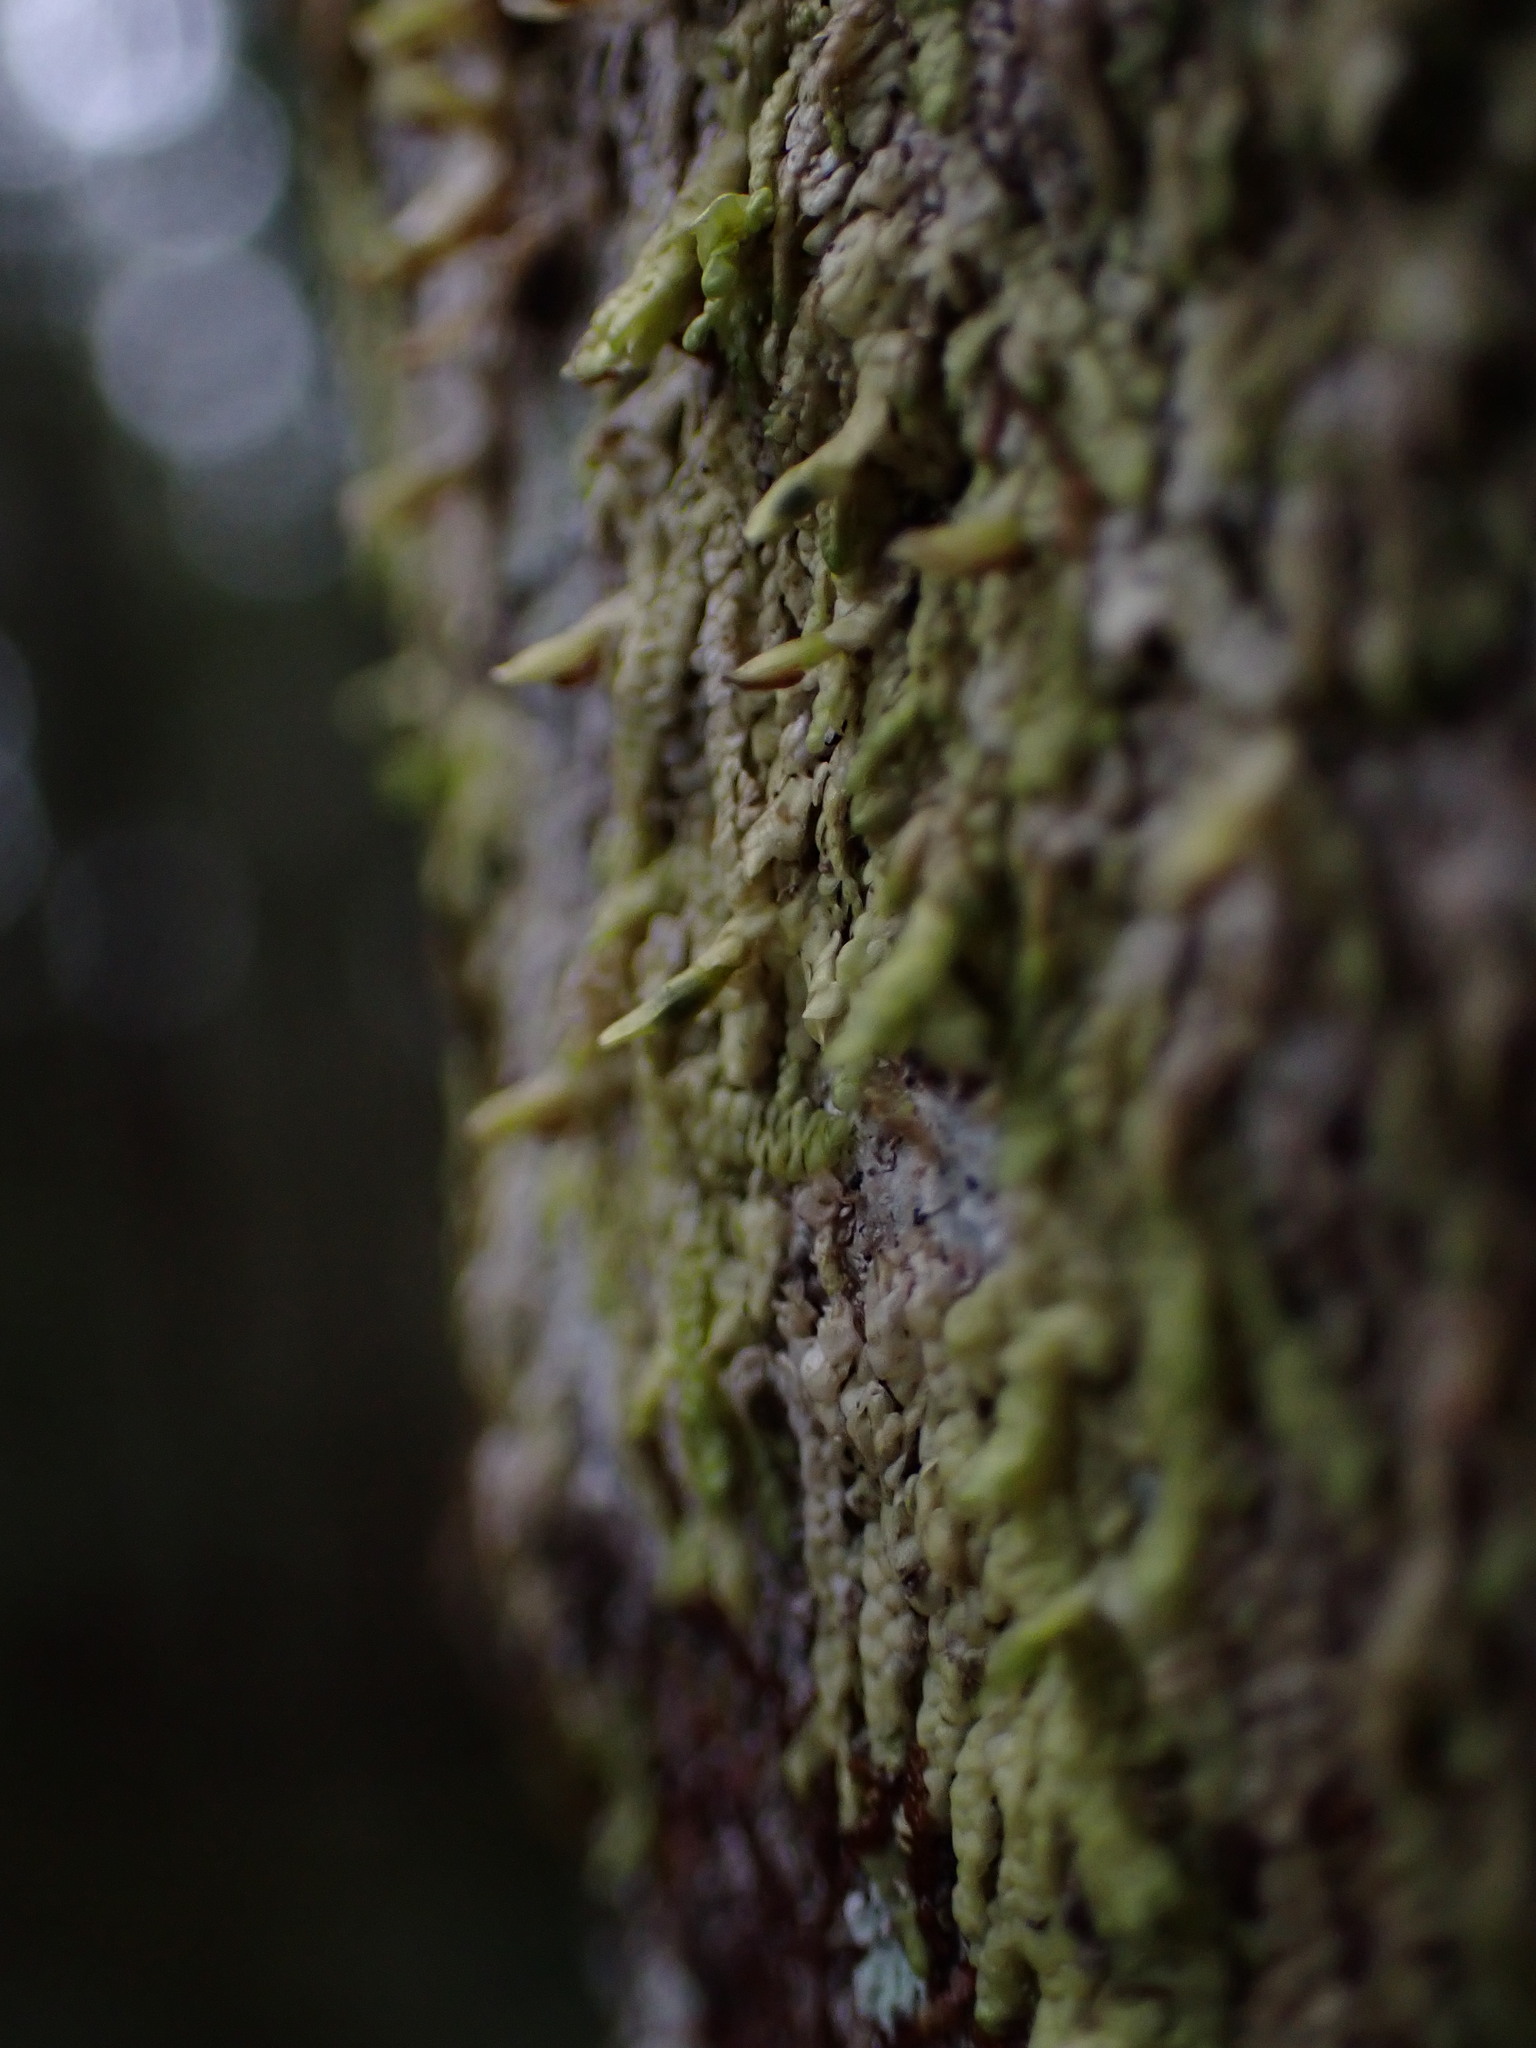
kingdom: Plantae
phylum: Marchantiophyta
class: Jungermanniopsida
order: Porellales
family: Radulaceae
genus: Radula
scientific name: Radula complanata
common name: Flat-leaved scalewort
